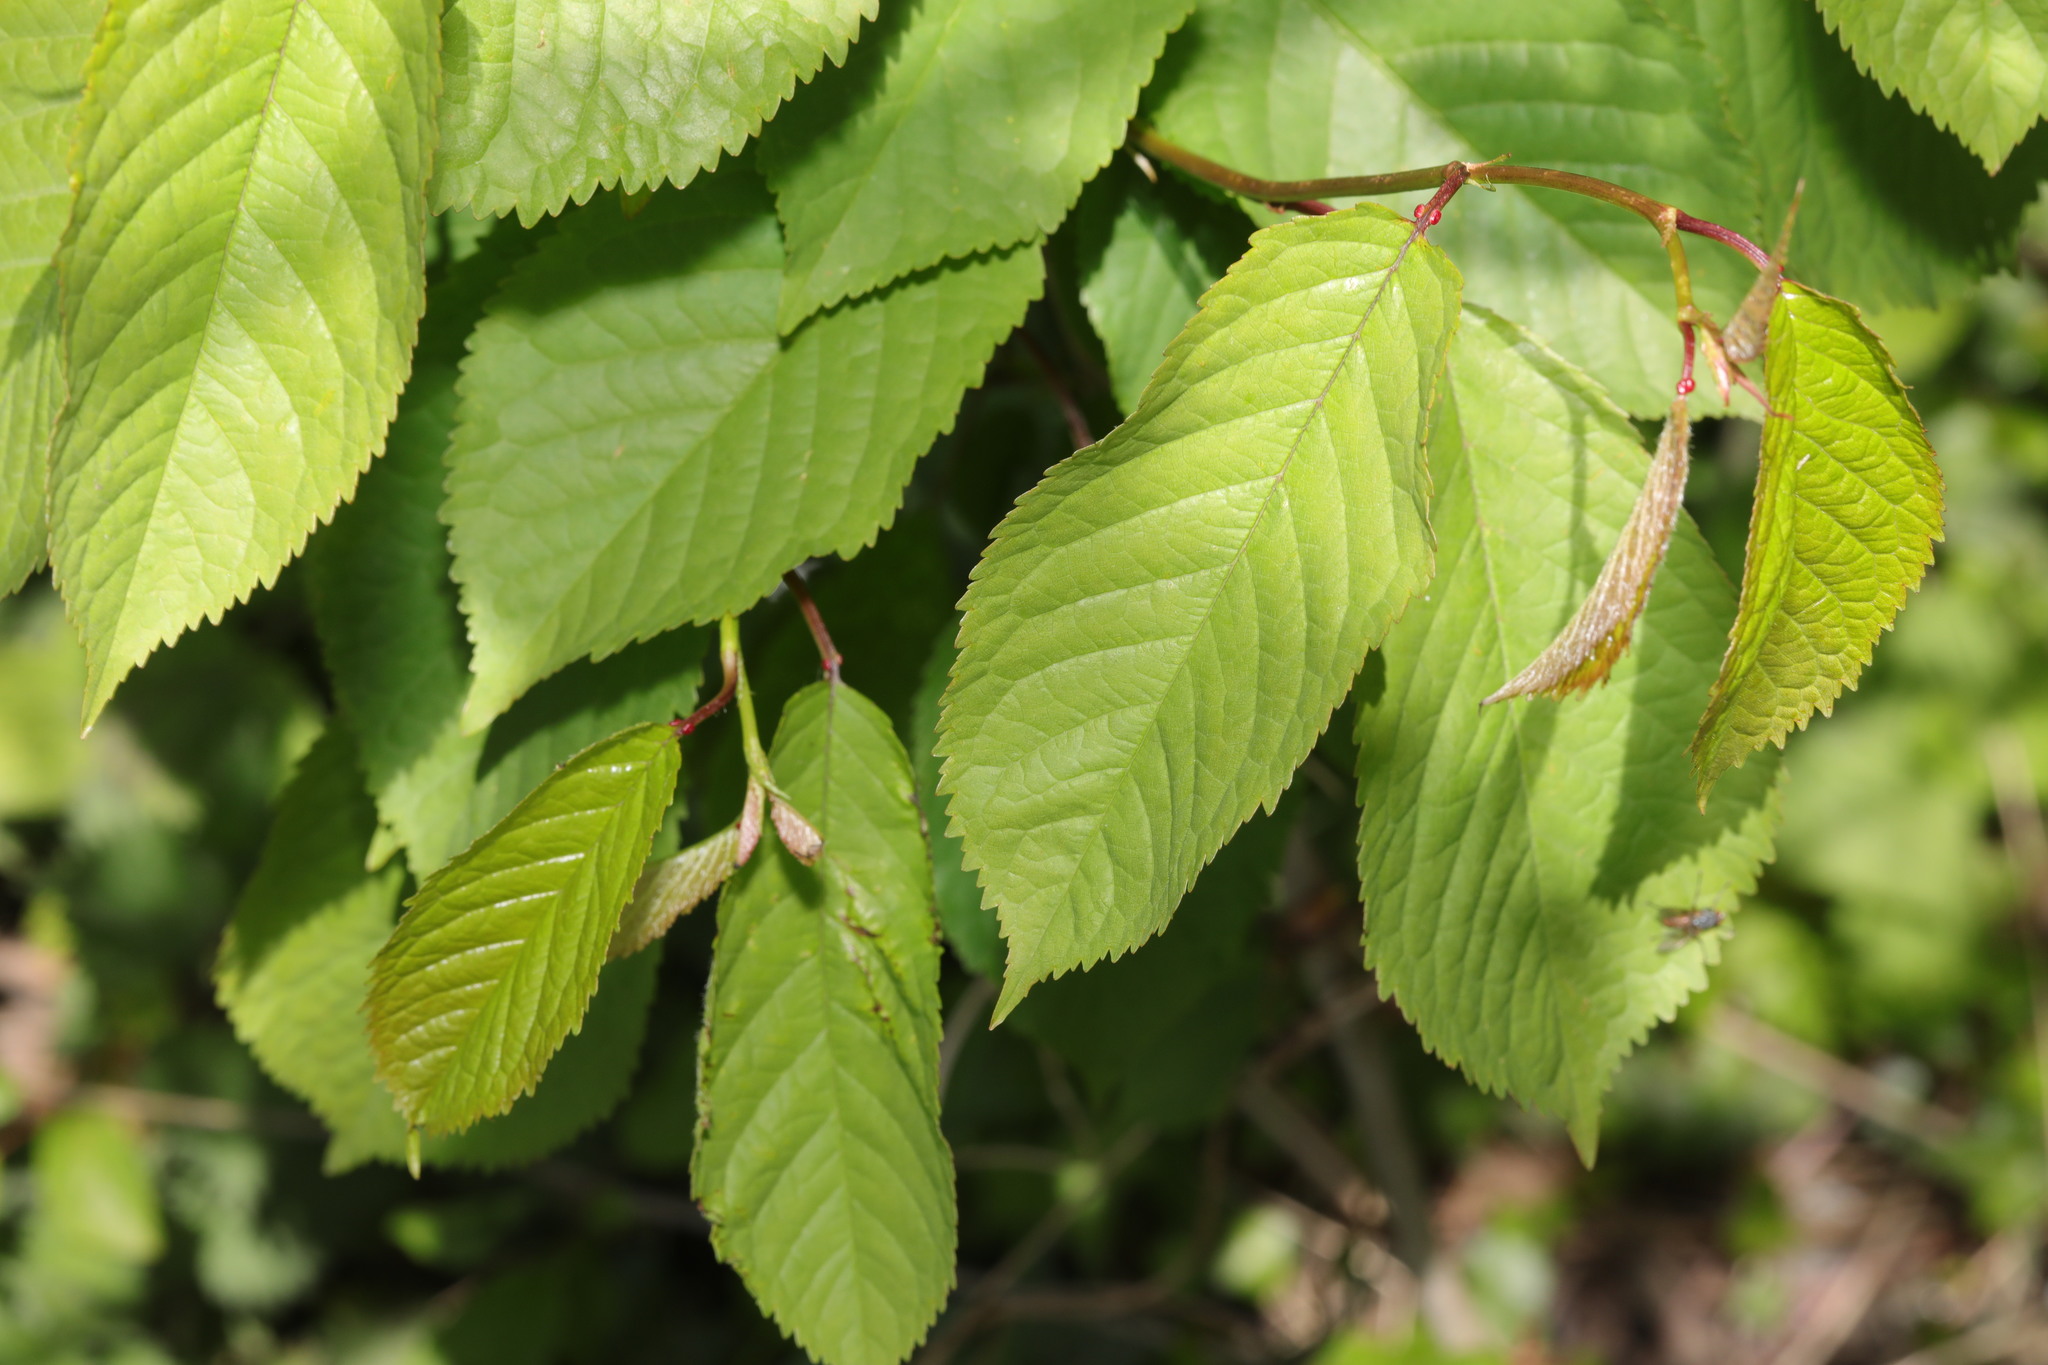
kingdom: Plantae
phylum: Tracheophyta
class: Magnoliopsida
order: Rosales
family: Rosaceae
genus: Prunus
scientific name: Prunus avium
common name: Sweet cherry
